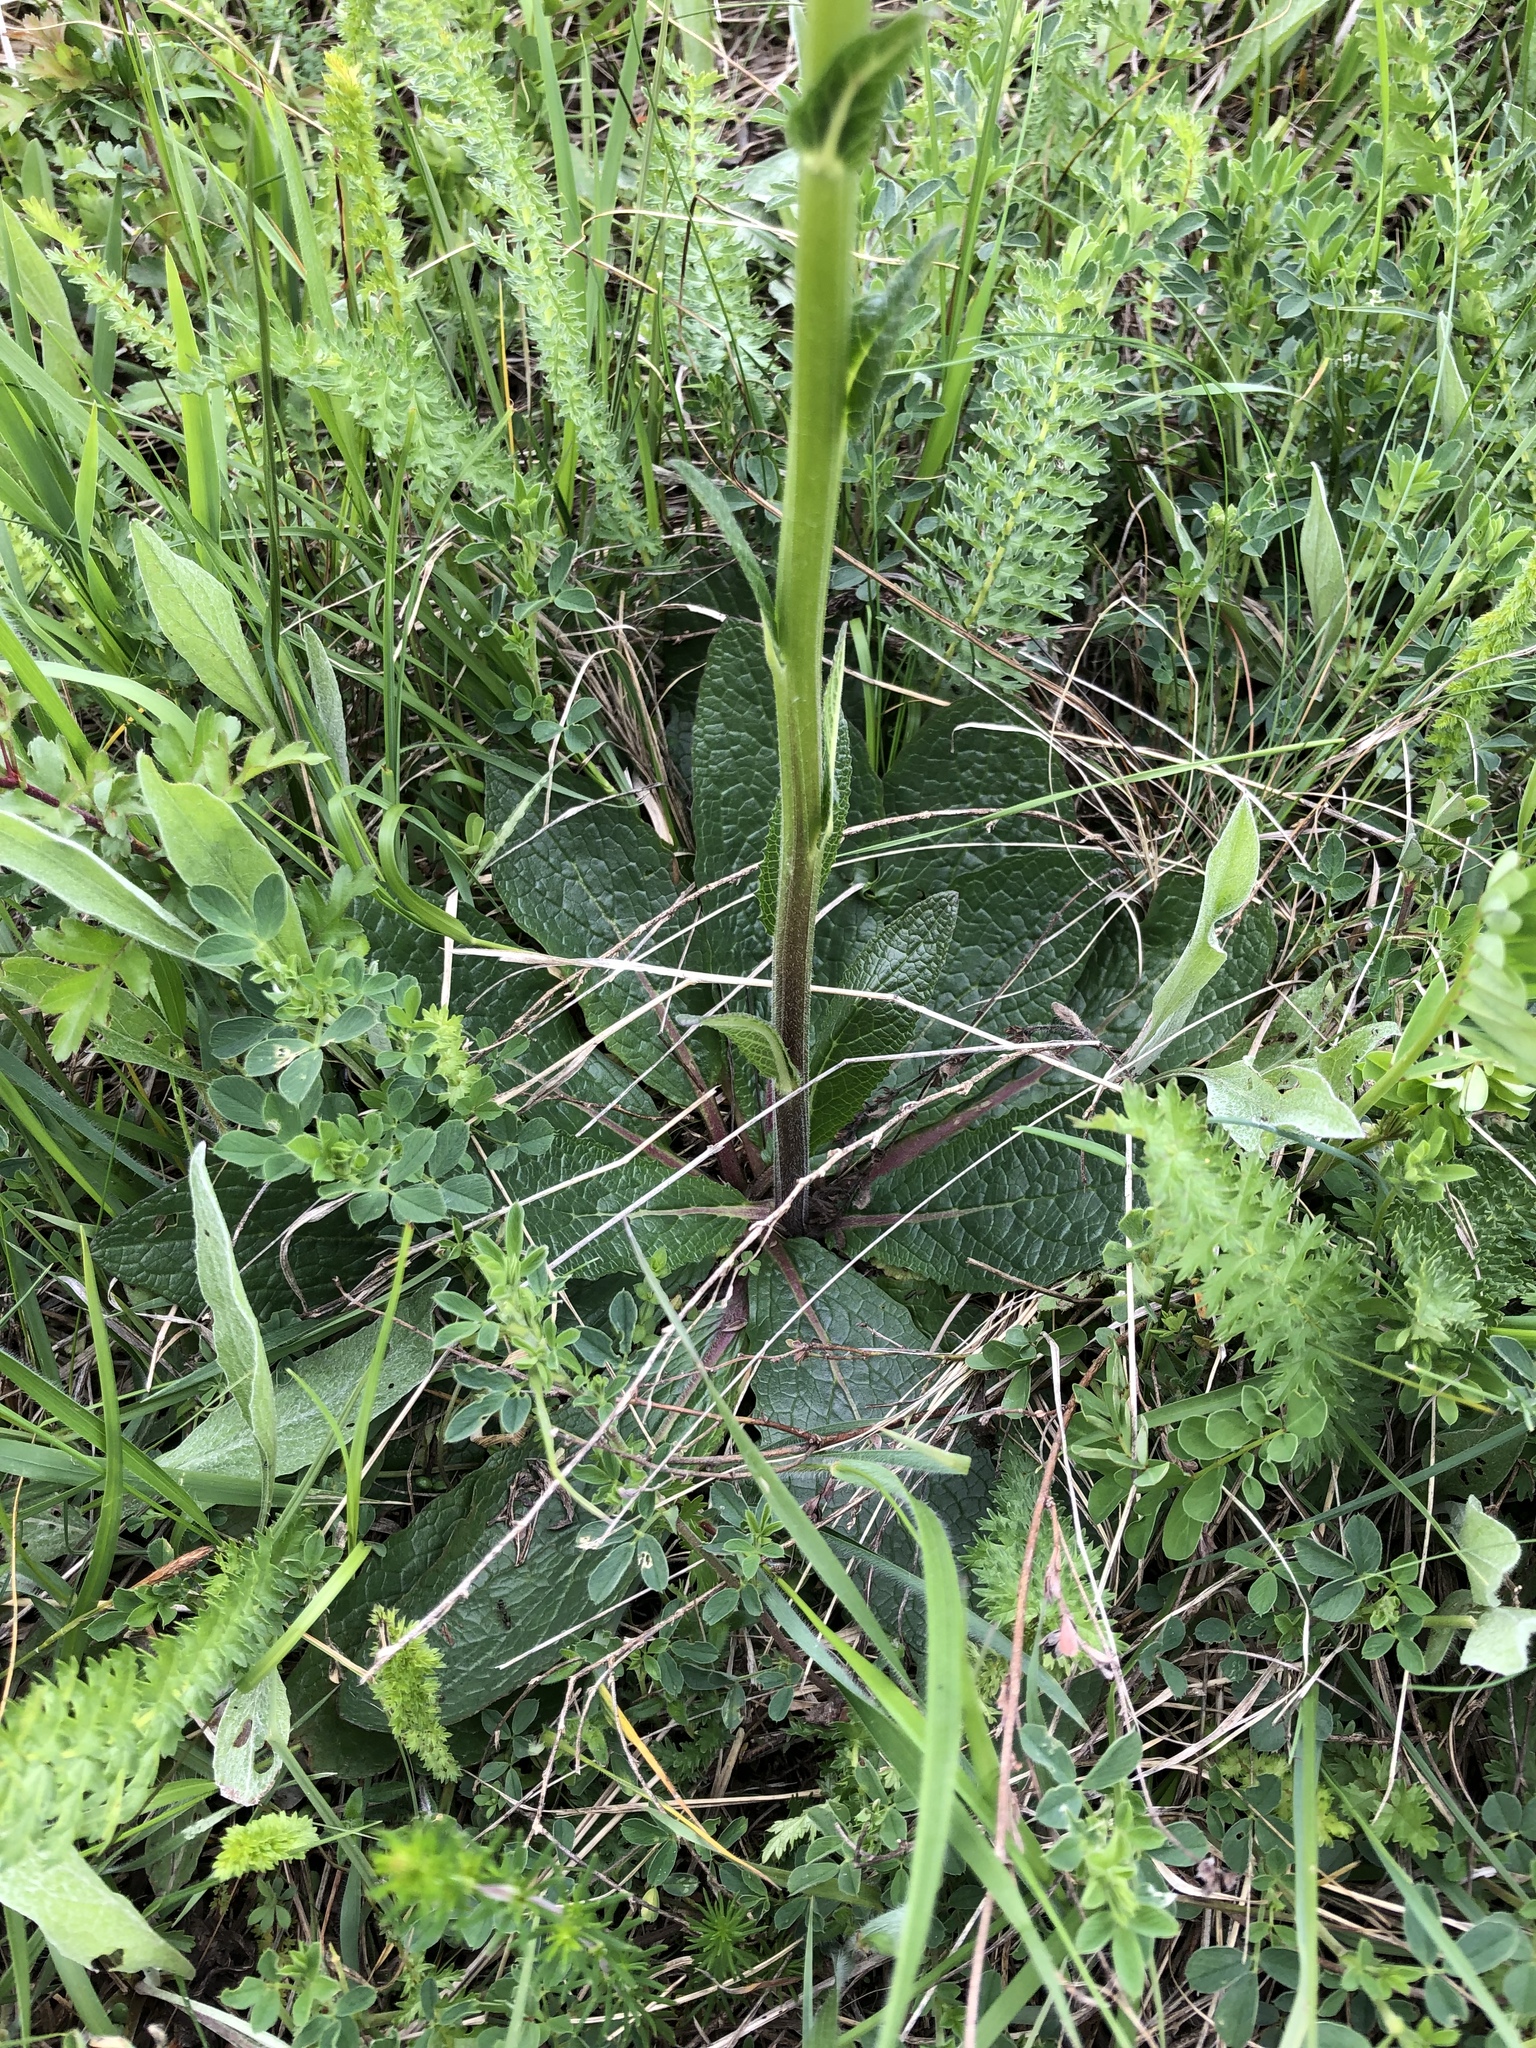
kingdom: Plantae
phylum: Tracheophyta
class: Magnoliopsida
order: Lamiales
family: Scrophulariaceae
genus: Verbascum
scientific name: Verbascum phoeniceum
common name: Purple mullein
